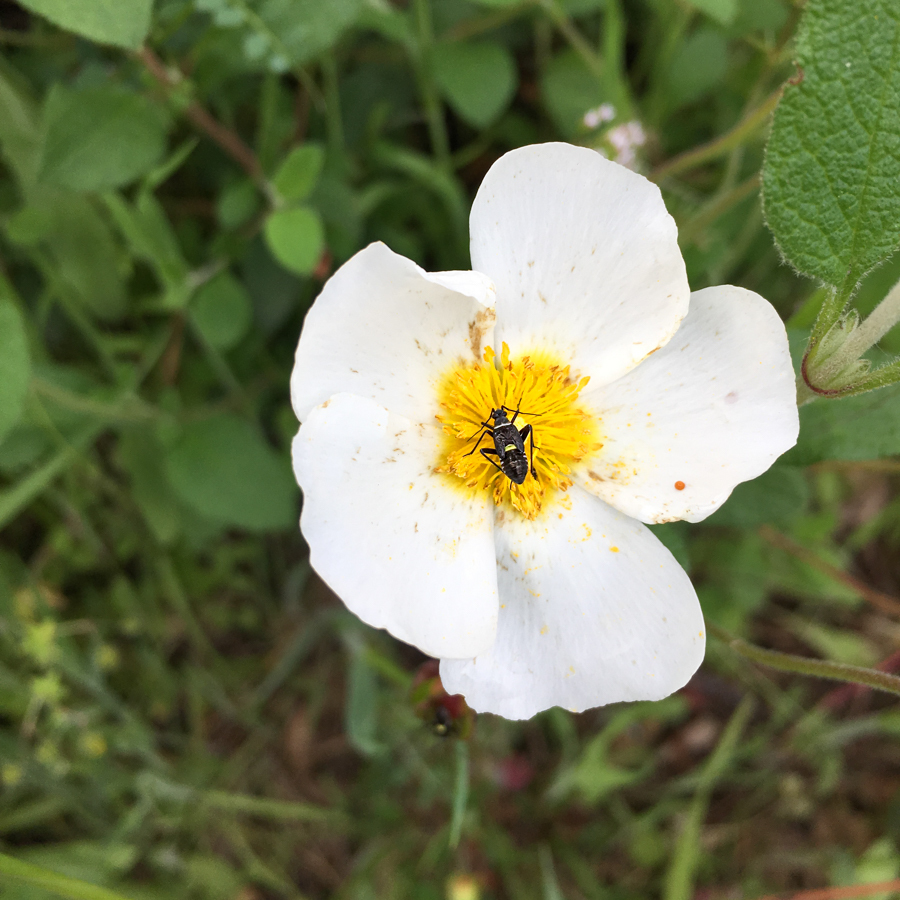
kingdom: Animalia
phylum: Arthropoda
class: Insecta
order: Hemiptera
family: Miridae
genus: Hadrodemus
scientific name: Hadrodemus m-flavum
